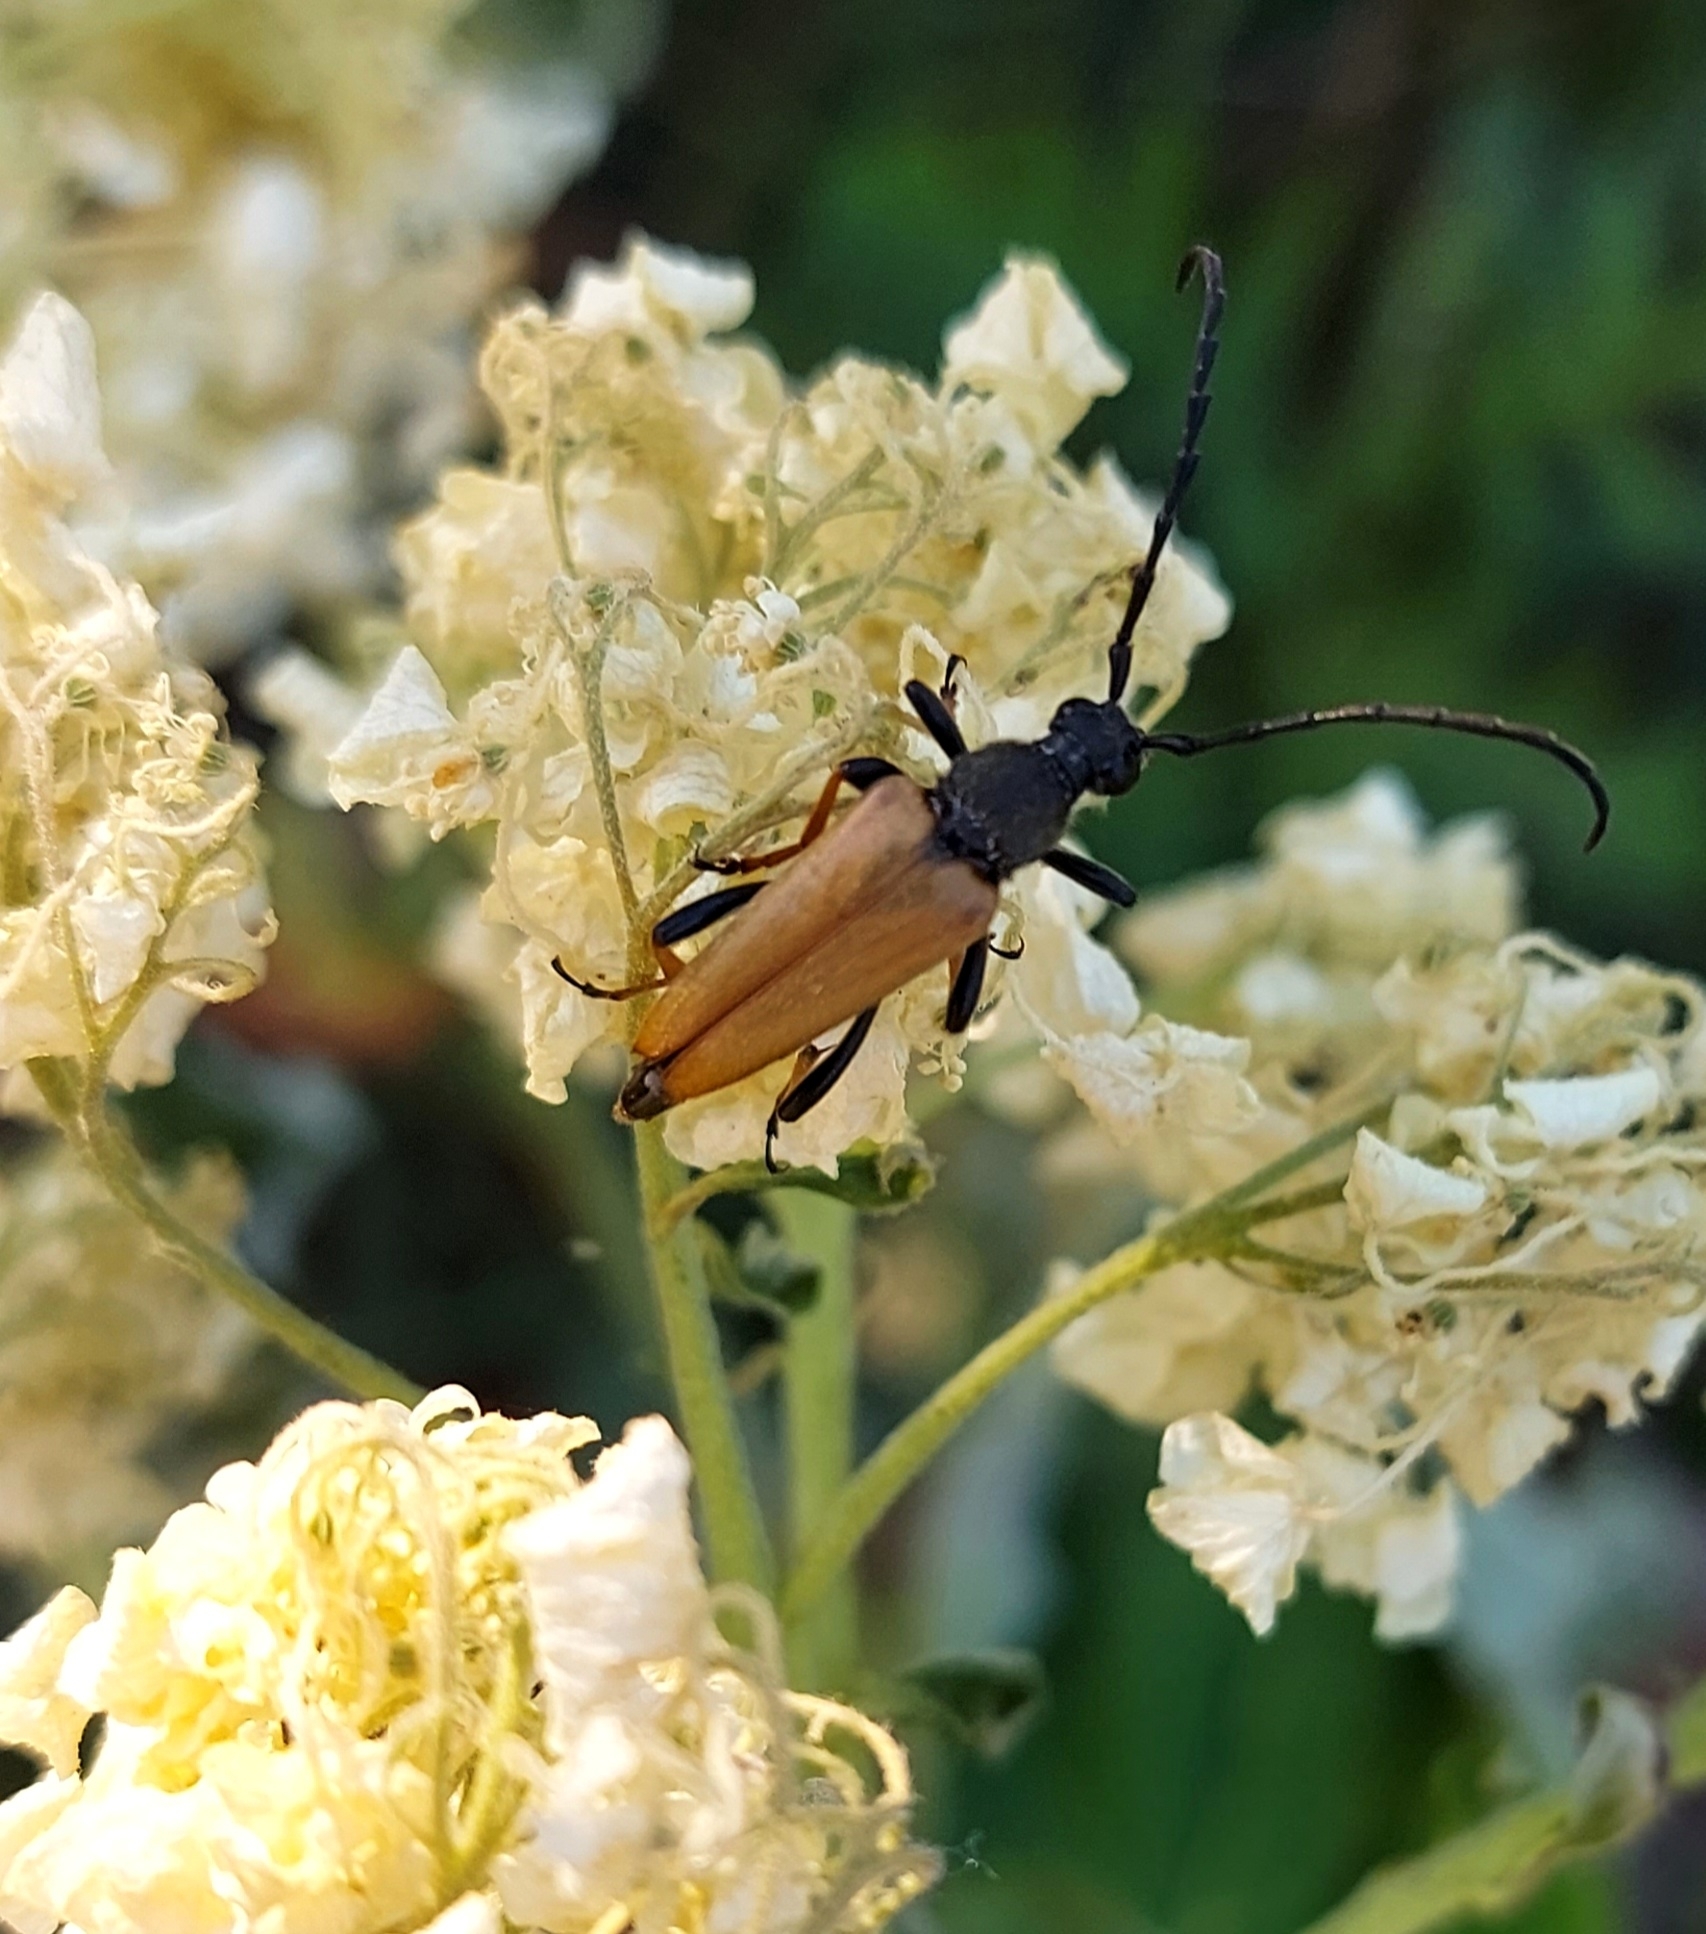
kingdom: Animalia
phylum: Arthropoda
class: Insecta
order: Coleoptera
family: Cerambycidae
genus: Stictoleptura
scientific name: Stictoleptura rubra
